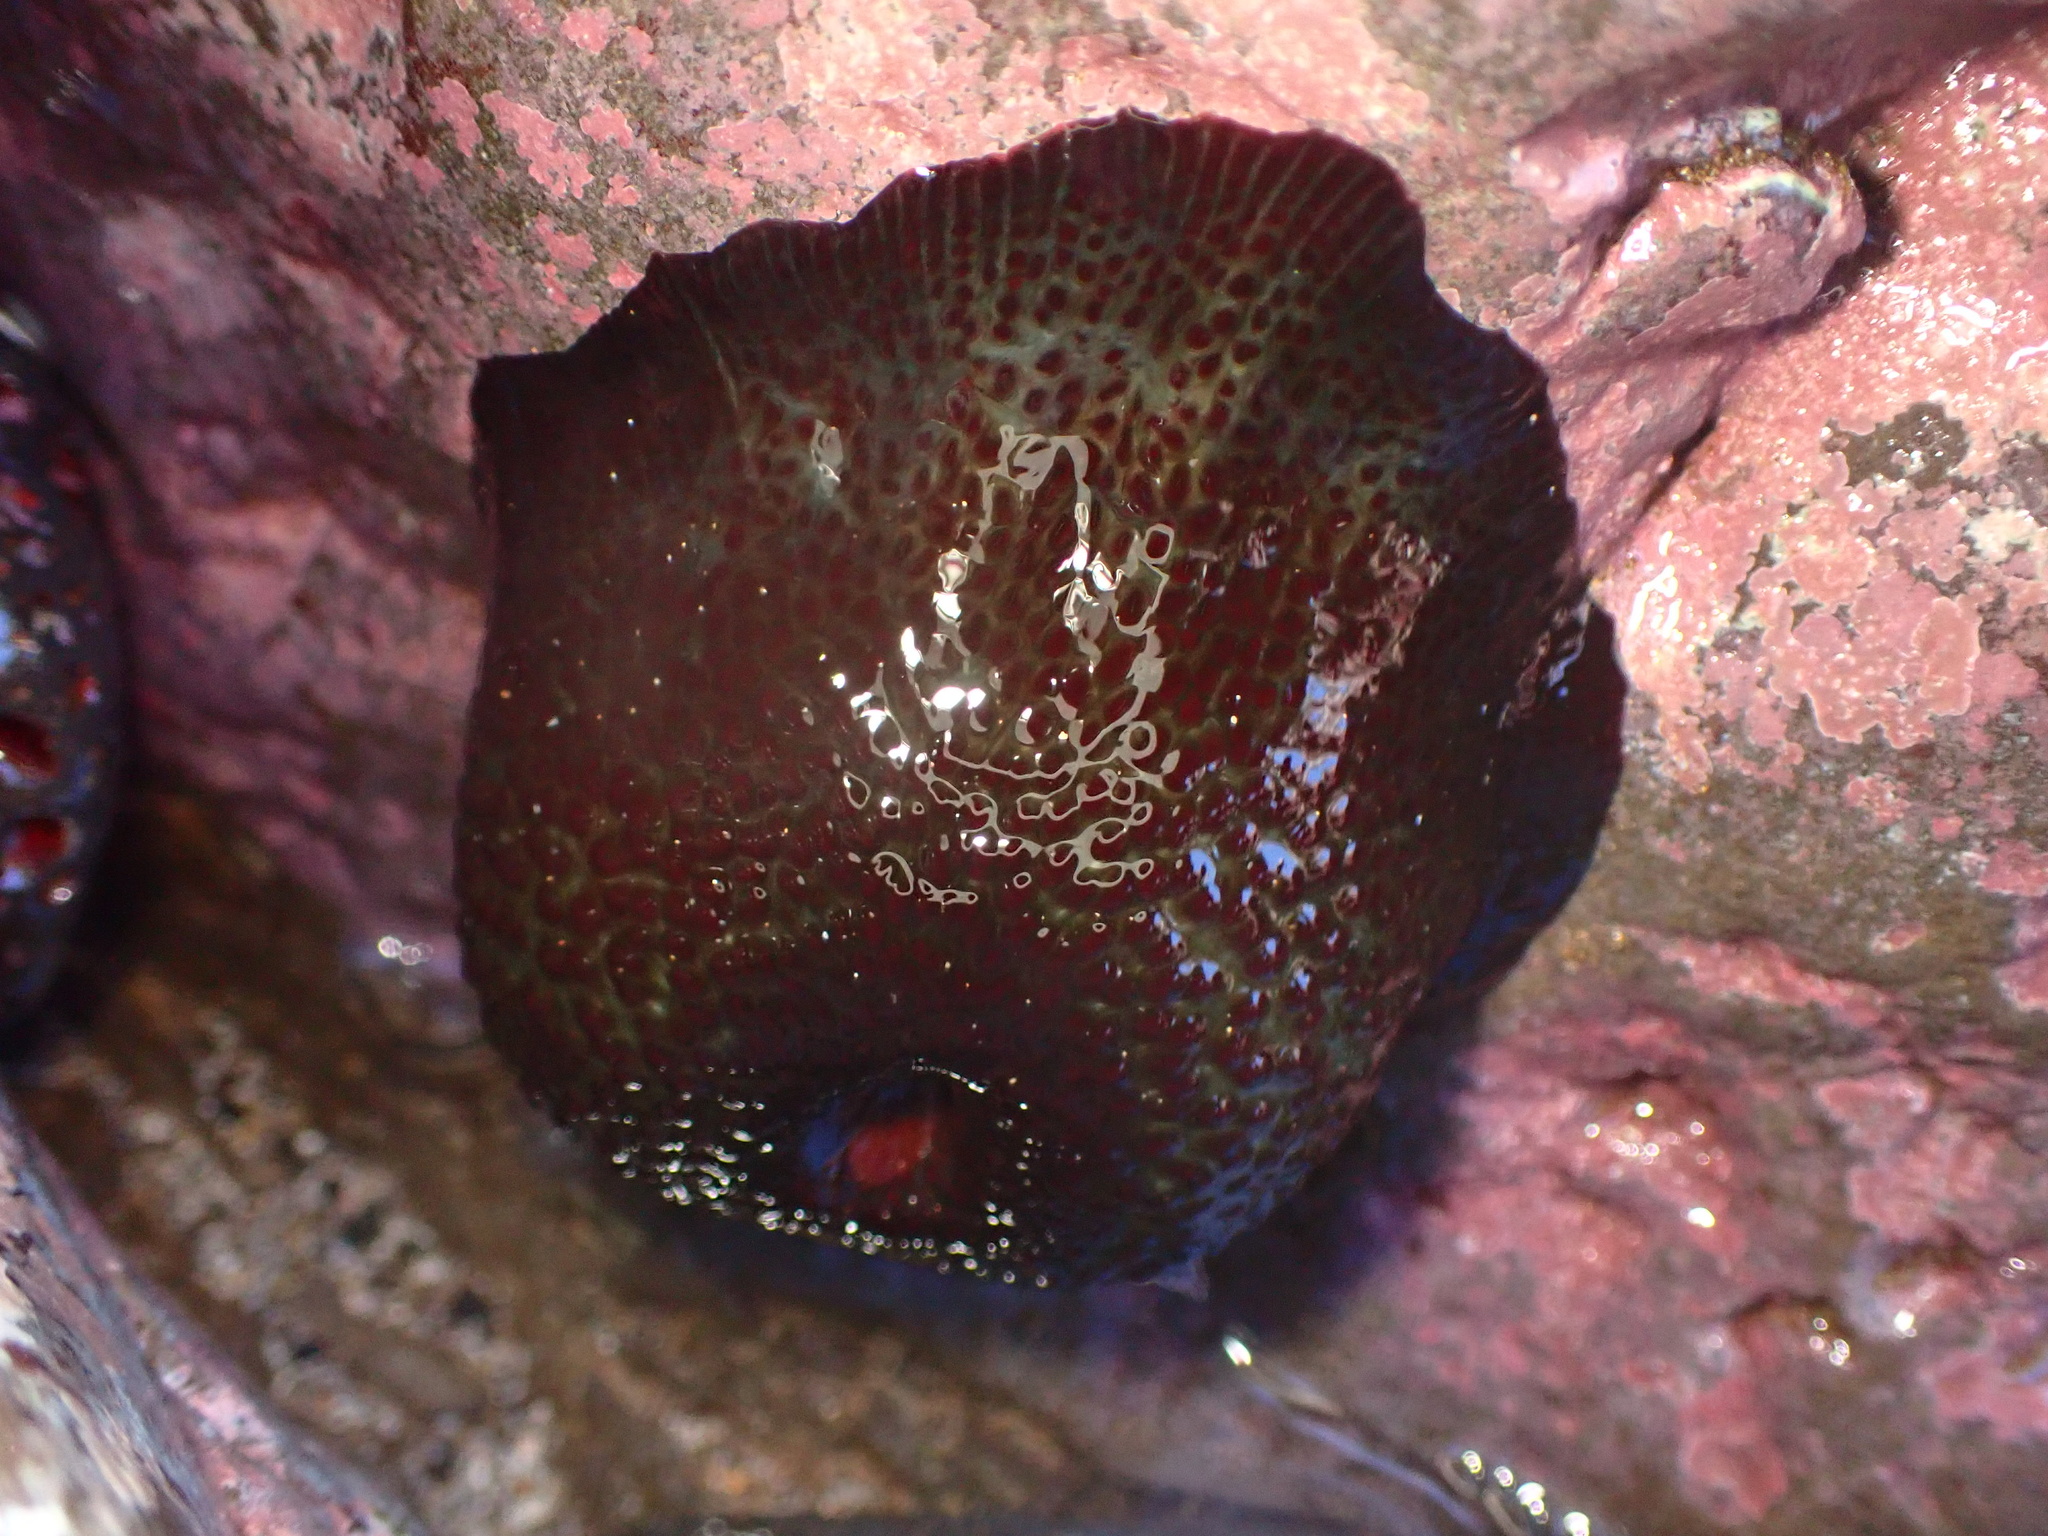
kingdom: Animalia
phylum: Cnidaria
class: Anthozoa
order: Actiniaria
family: Actiniidae
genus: Cladactella
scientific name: Cladactella manni
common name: Mann's anemone
